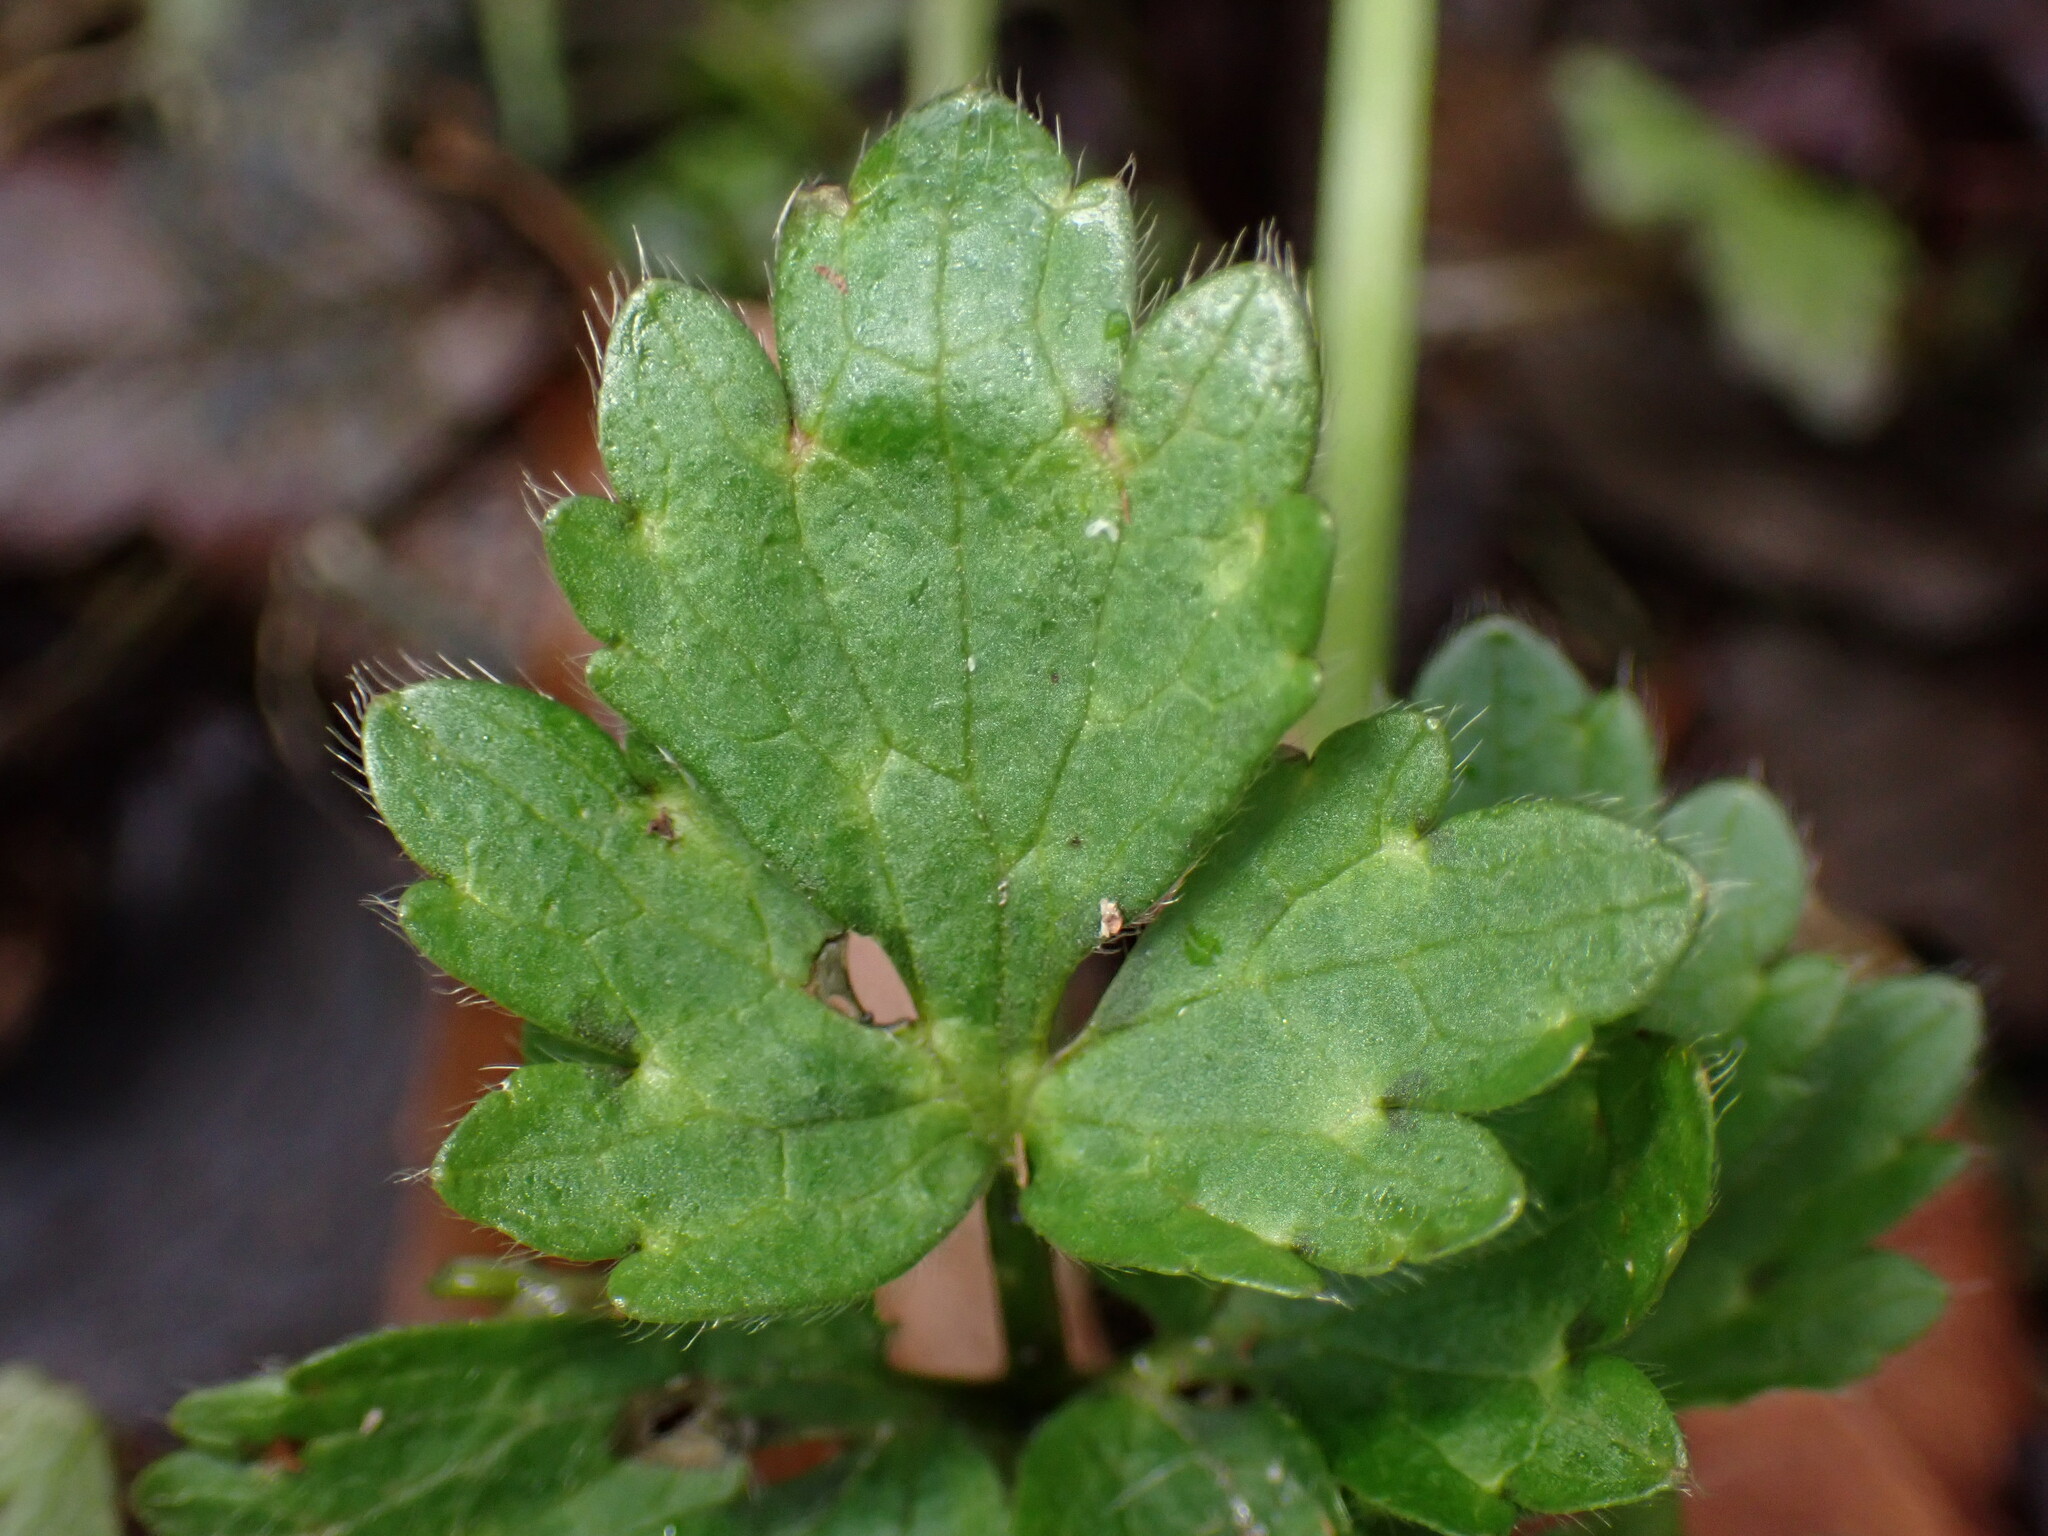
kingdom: Plantae
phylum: Tracheophyta
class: Magnoliopsida
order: Ranunculales
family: Ranunculaceae
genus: Ranunculus
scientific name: Ranunculus repens
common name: Creeping buttercup
